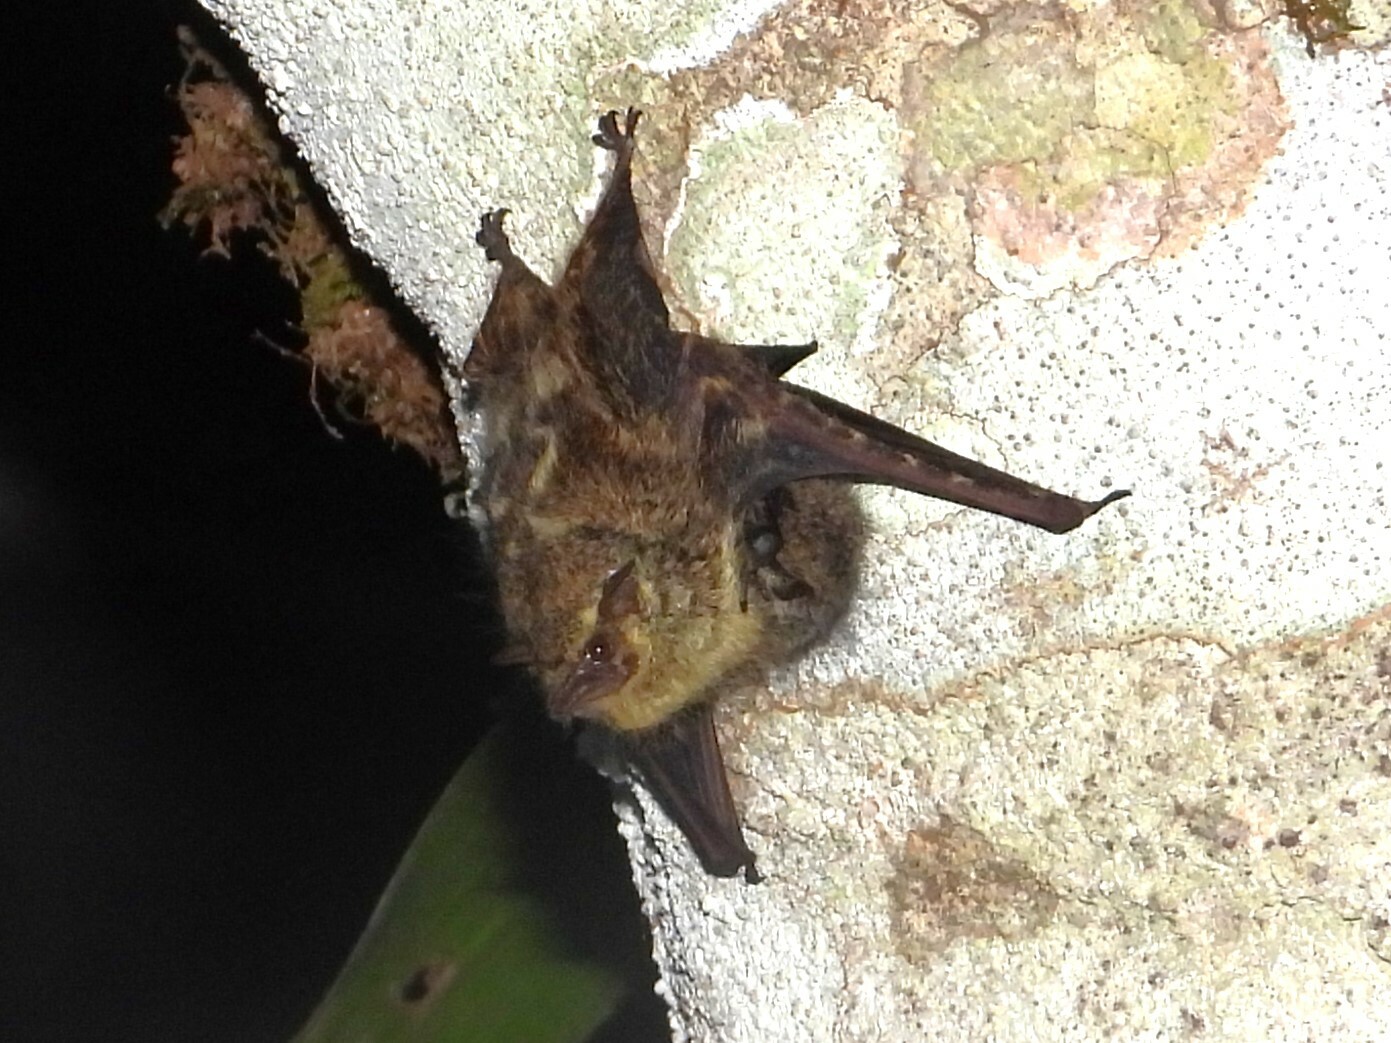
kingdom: Animalia
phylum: Chordata
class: Mammalia
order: Chiroptera
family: Emballonuridae
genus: Rhynchonycteris
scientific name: Rhynchonycteris naso
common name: Proboscis bat
